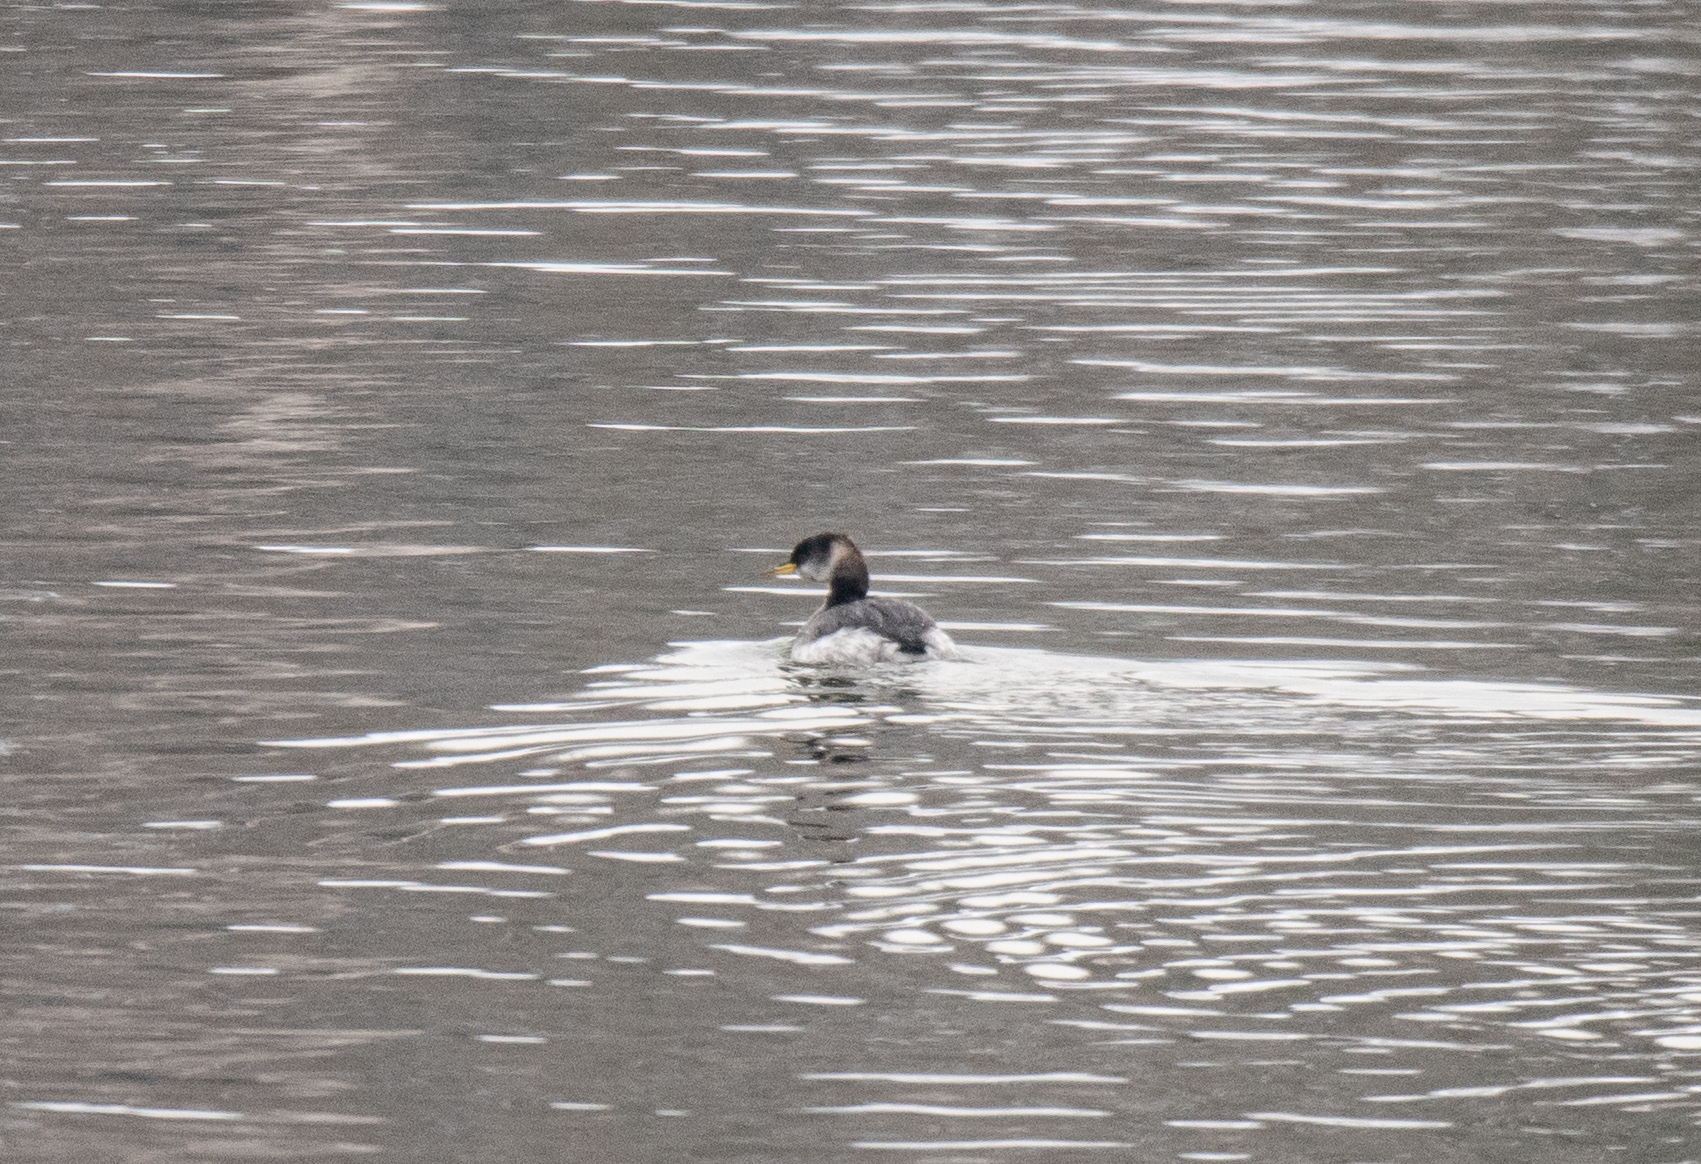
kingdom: Animalia
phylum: Chordata
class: Aves
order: Podicipediformes
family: Podicipedidae
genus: Podiceps
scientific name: Podiceps grisegena
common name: Red-necked grebe
